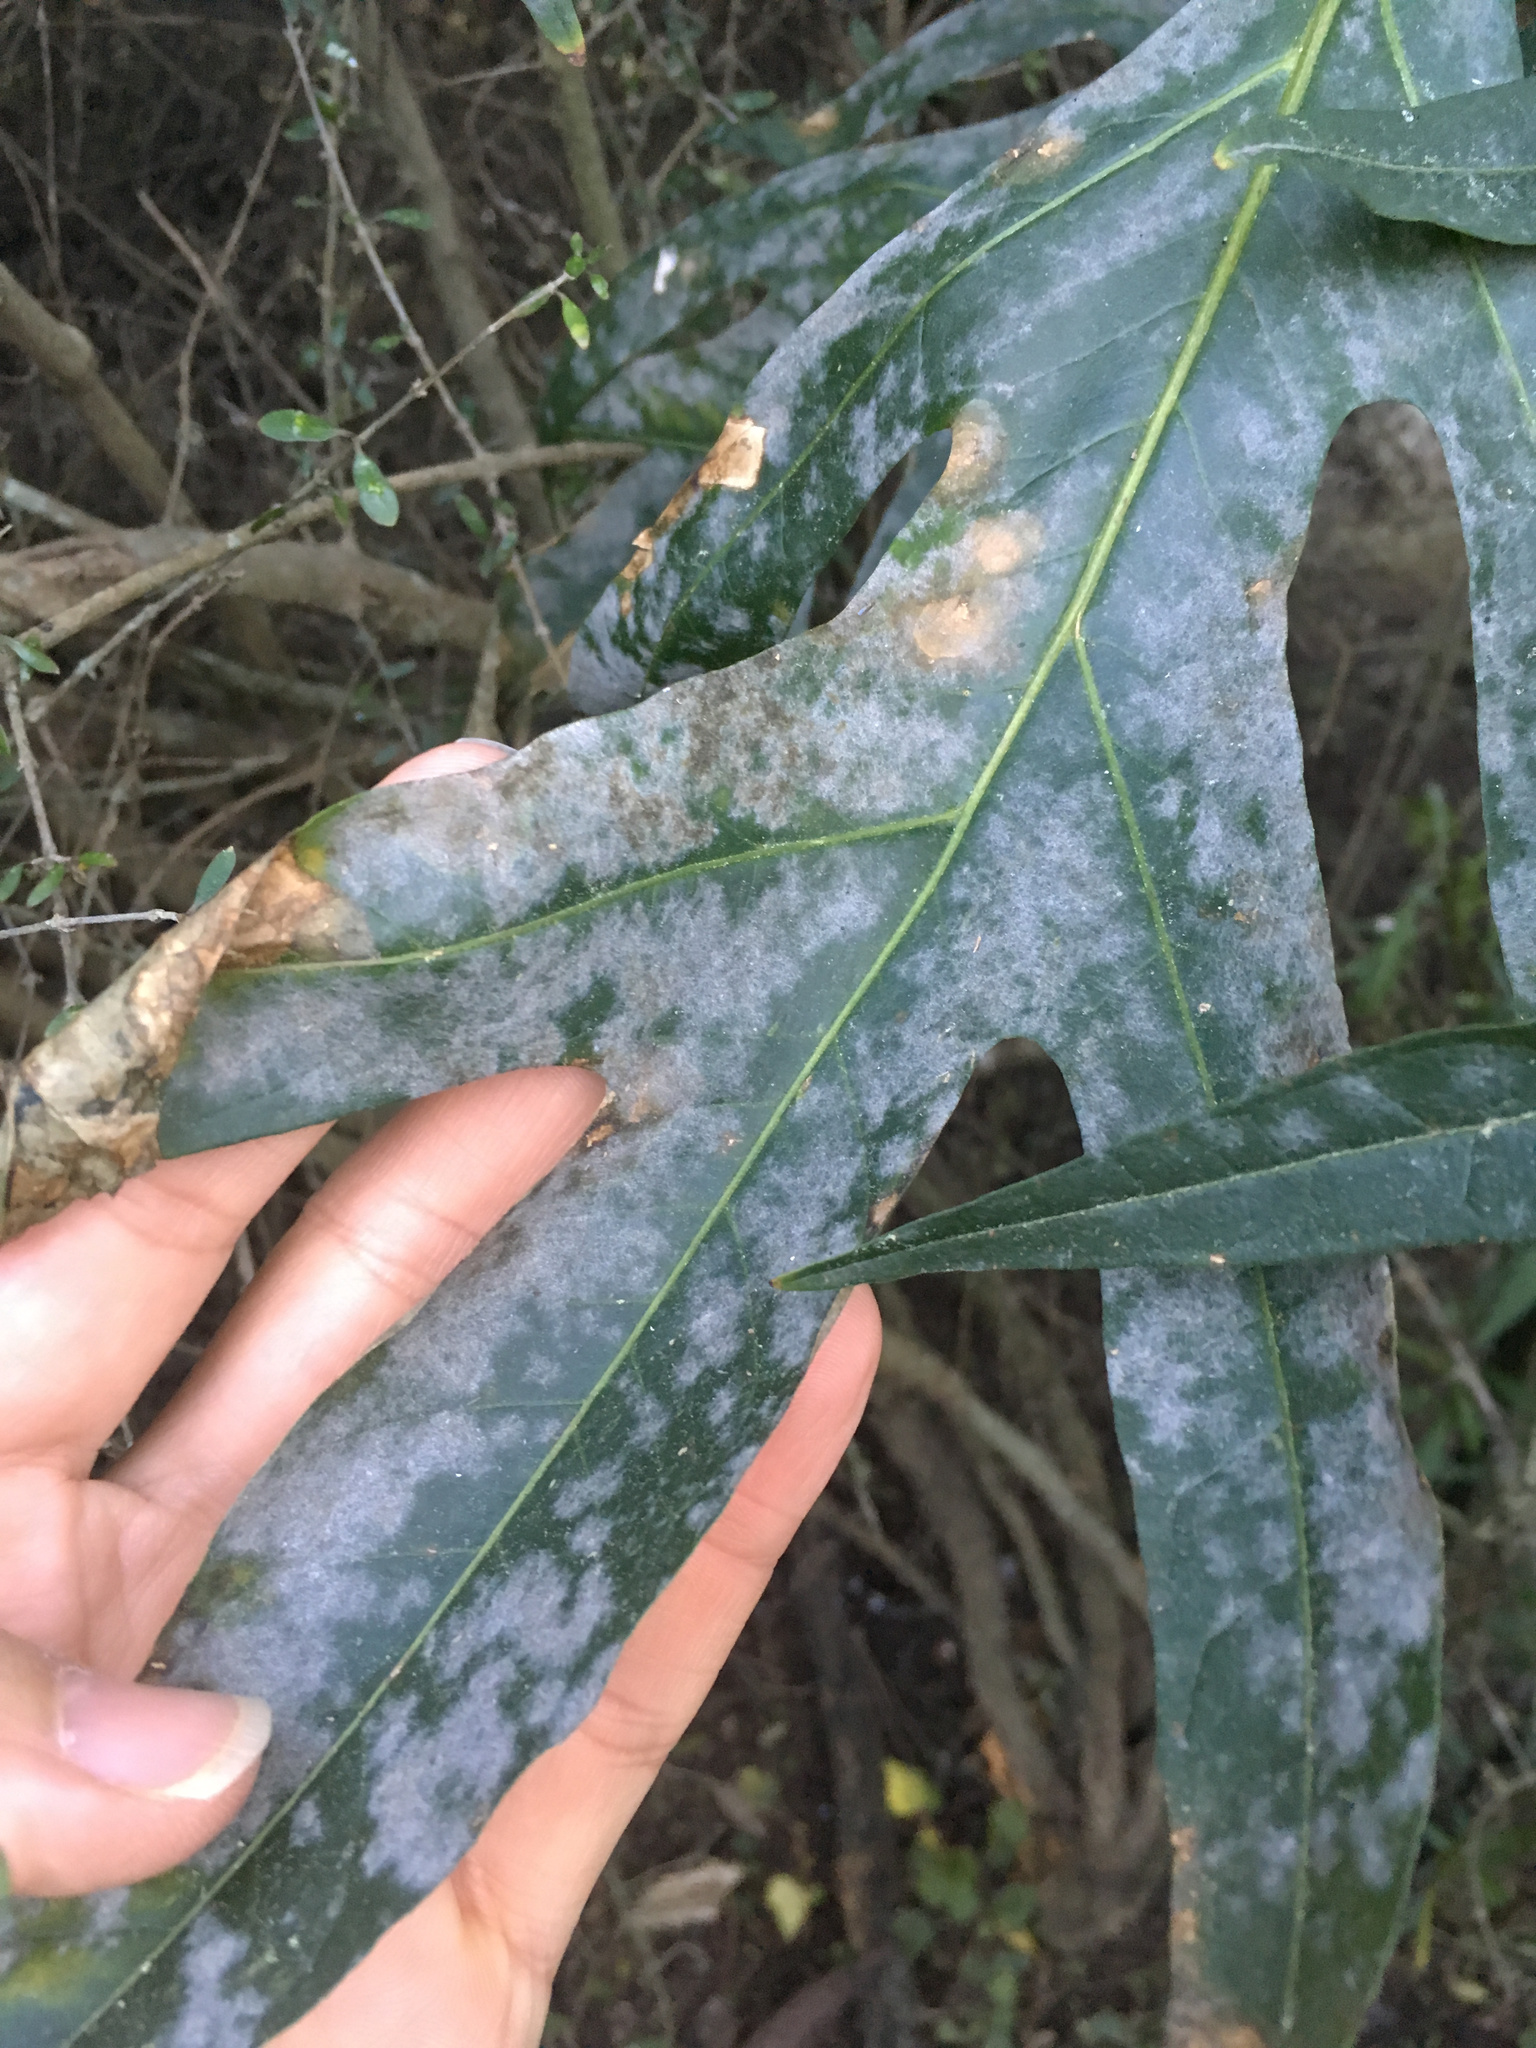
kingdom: Fungi
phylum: Ascomycota
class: Leotiomycetes
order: Helotiales
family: Erysiphaceae
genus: Golovinomyces
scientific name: Golovinomyces longipes
